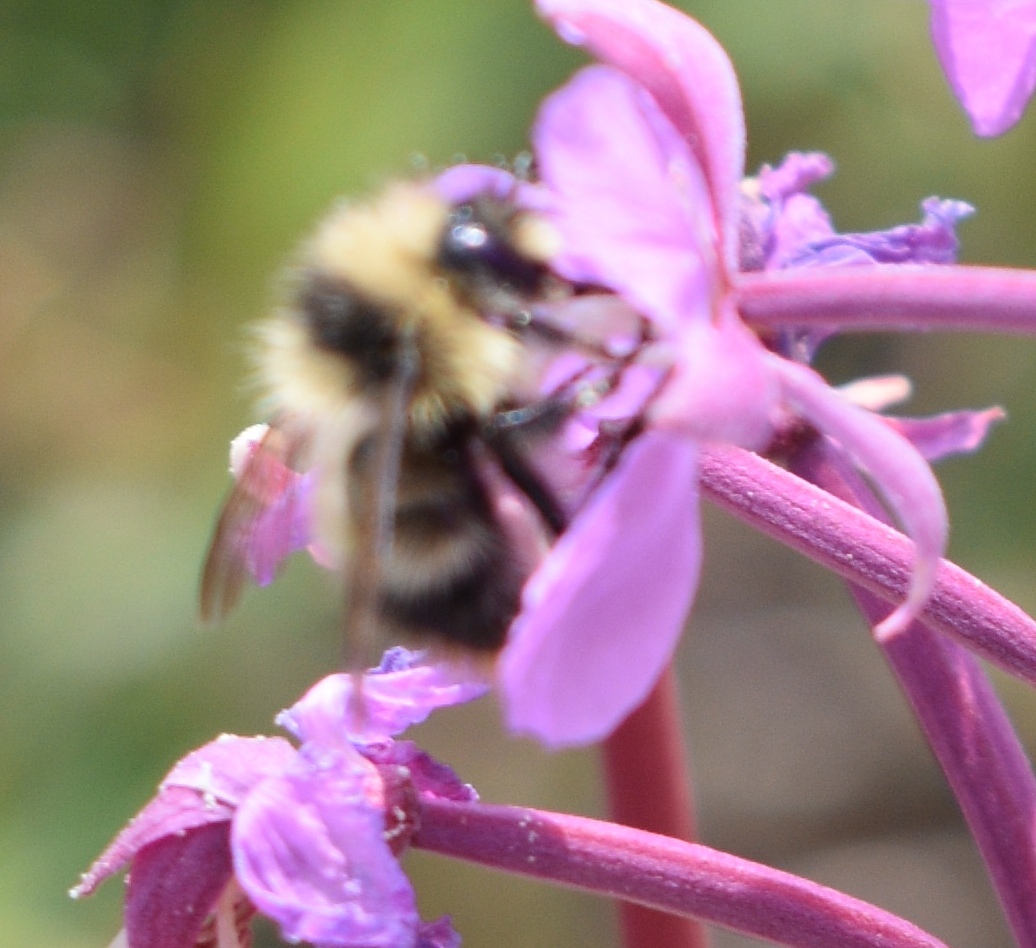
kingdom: Animalia
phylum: Arthropoda
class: Insecta
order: Hymenoptera
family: Apidae
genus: Bombus
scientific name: Bombus frigidus
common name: Frigid bumble bee
